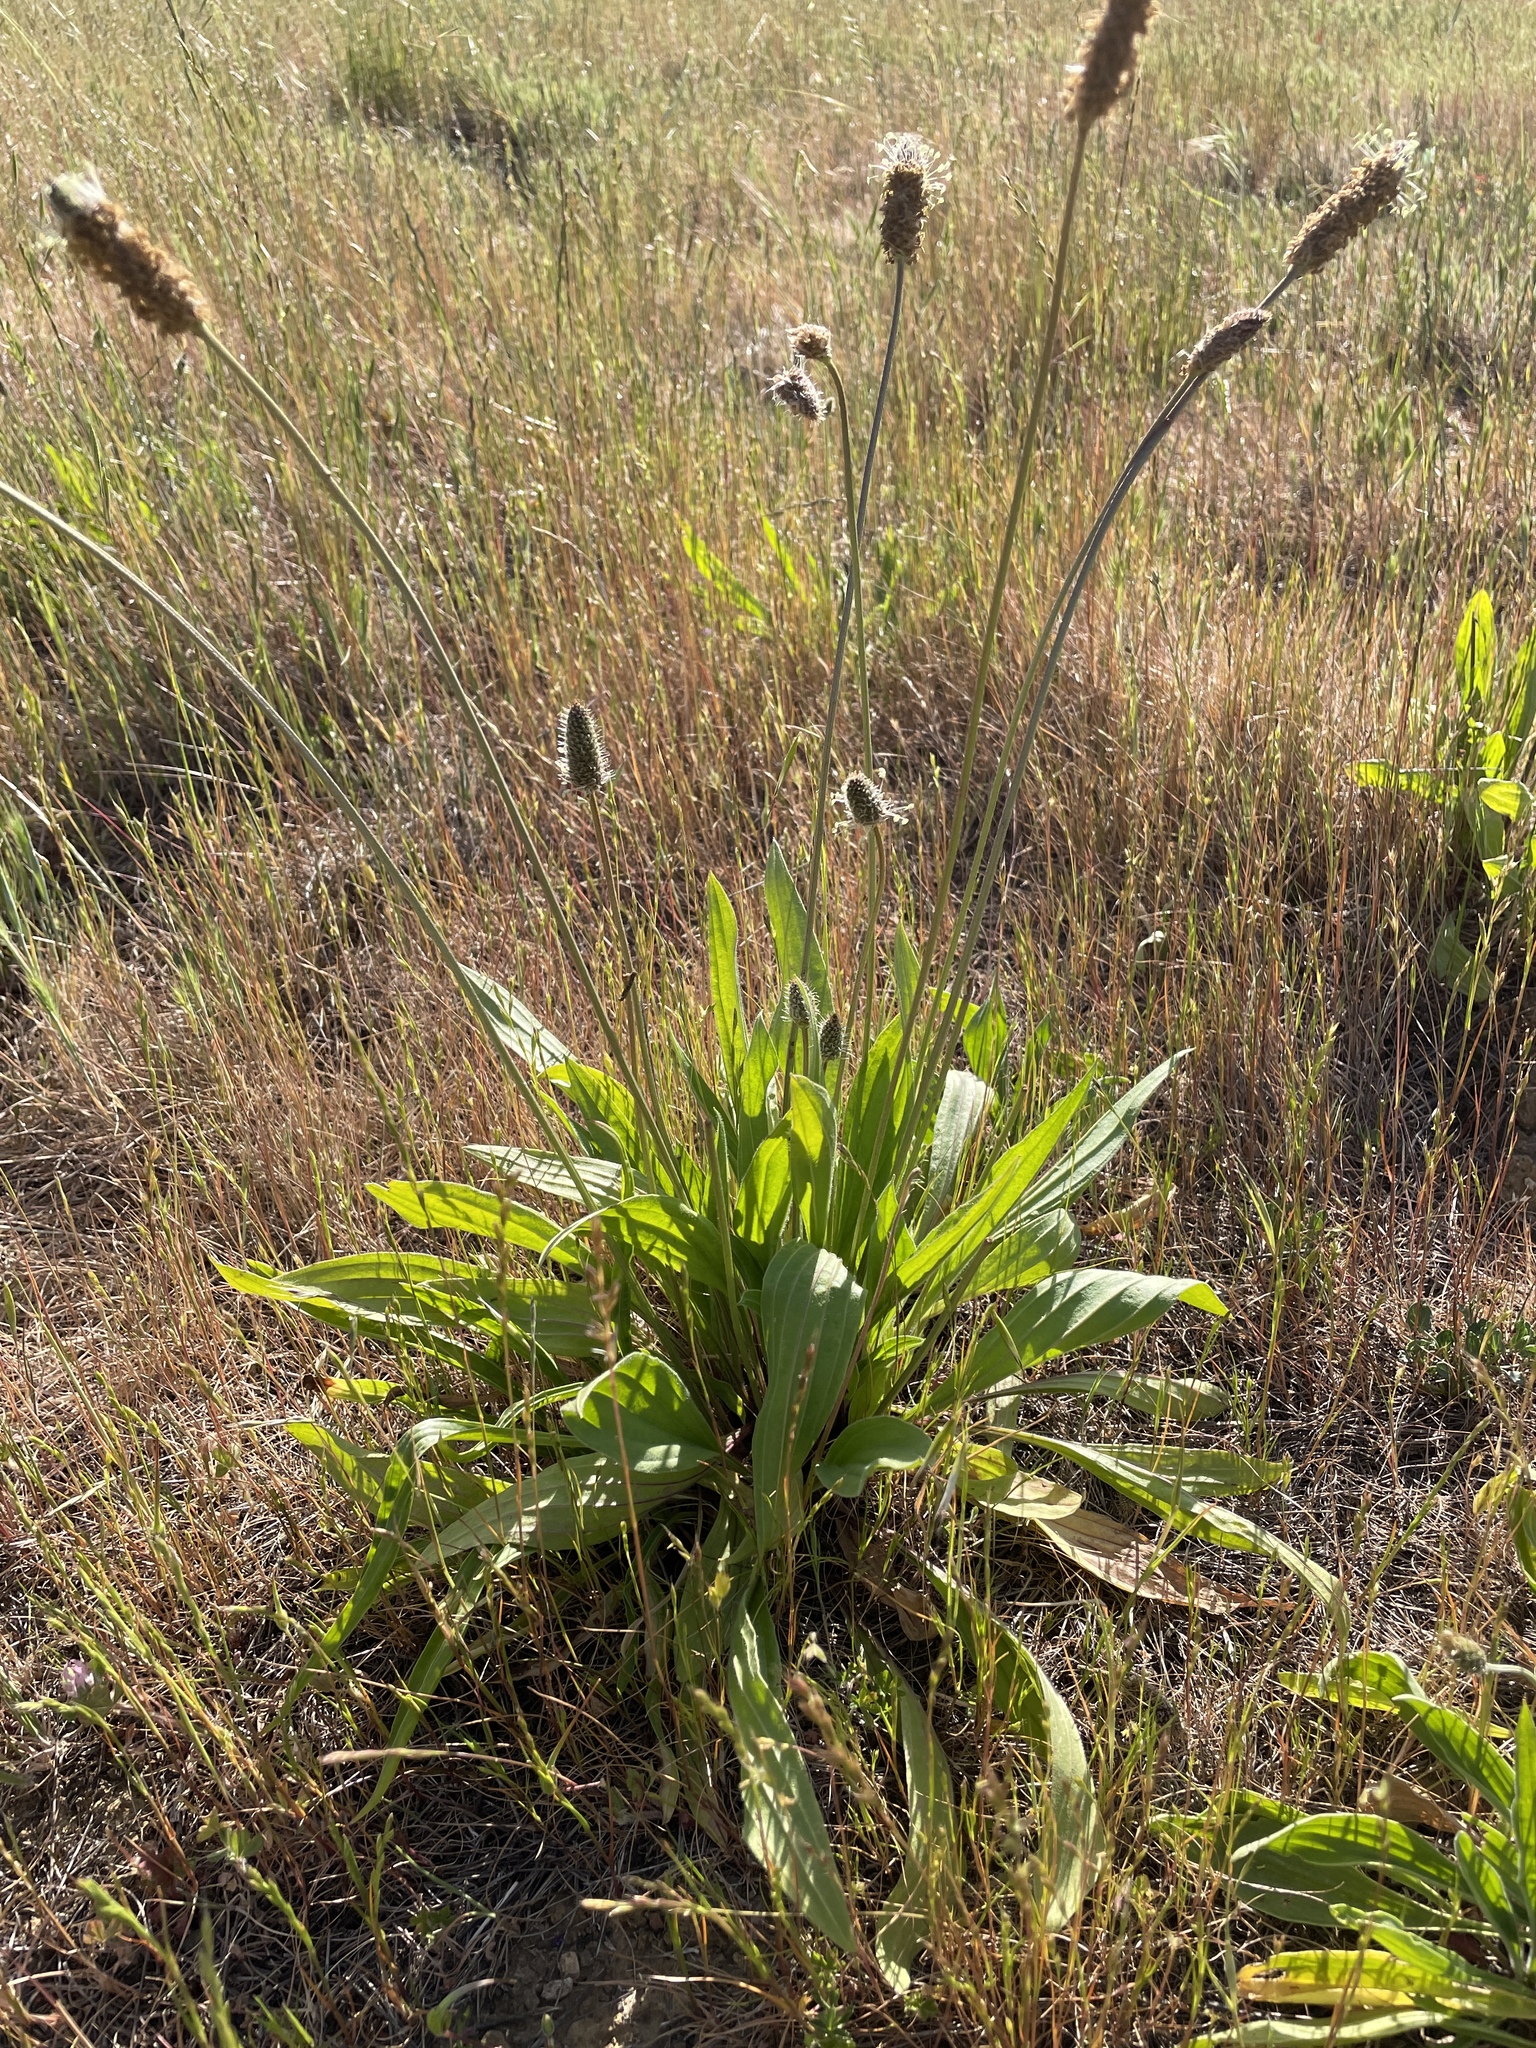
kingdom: Plantae
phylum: Tracheophyta
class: Magnoliopsida
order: Lamiales
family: Plantaginaceae
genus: Plantago
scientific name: Plantago lanceolata
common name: Ribwort plantain
